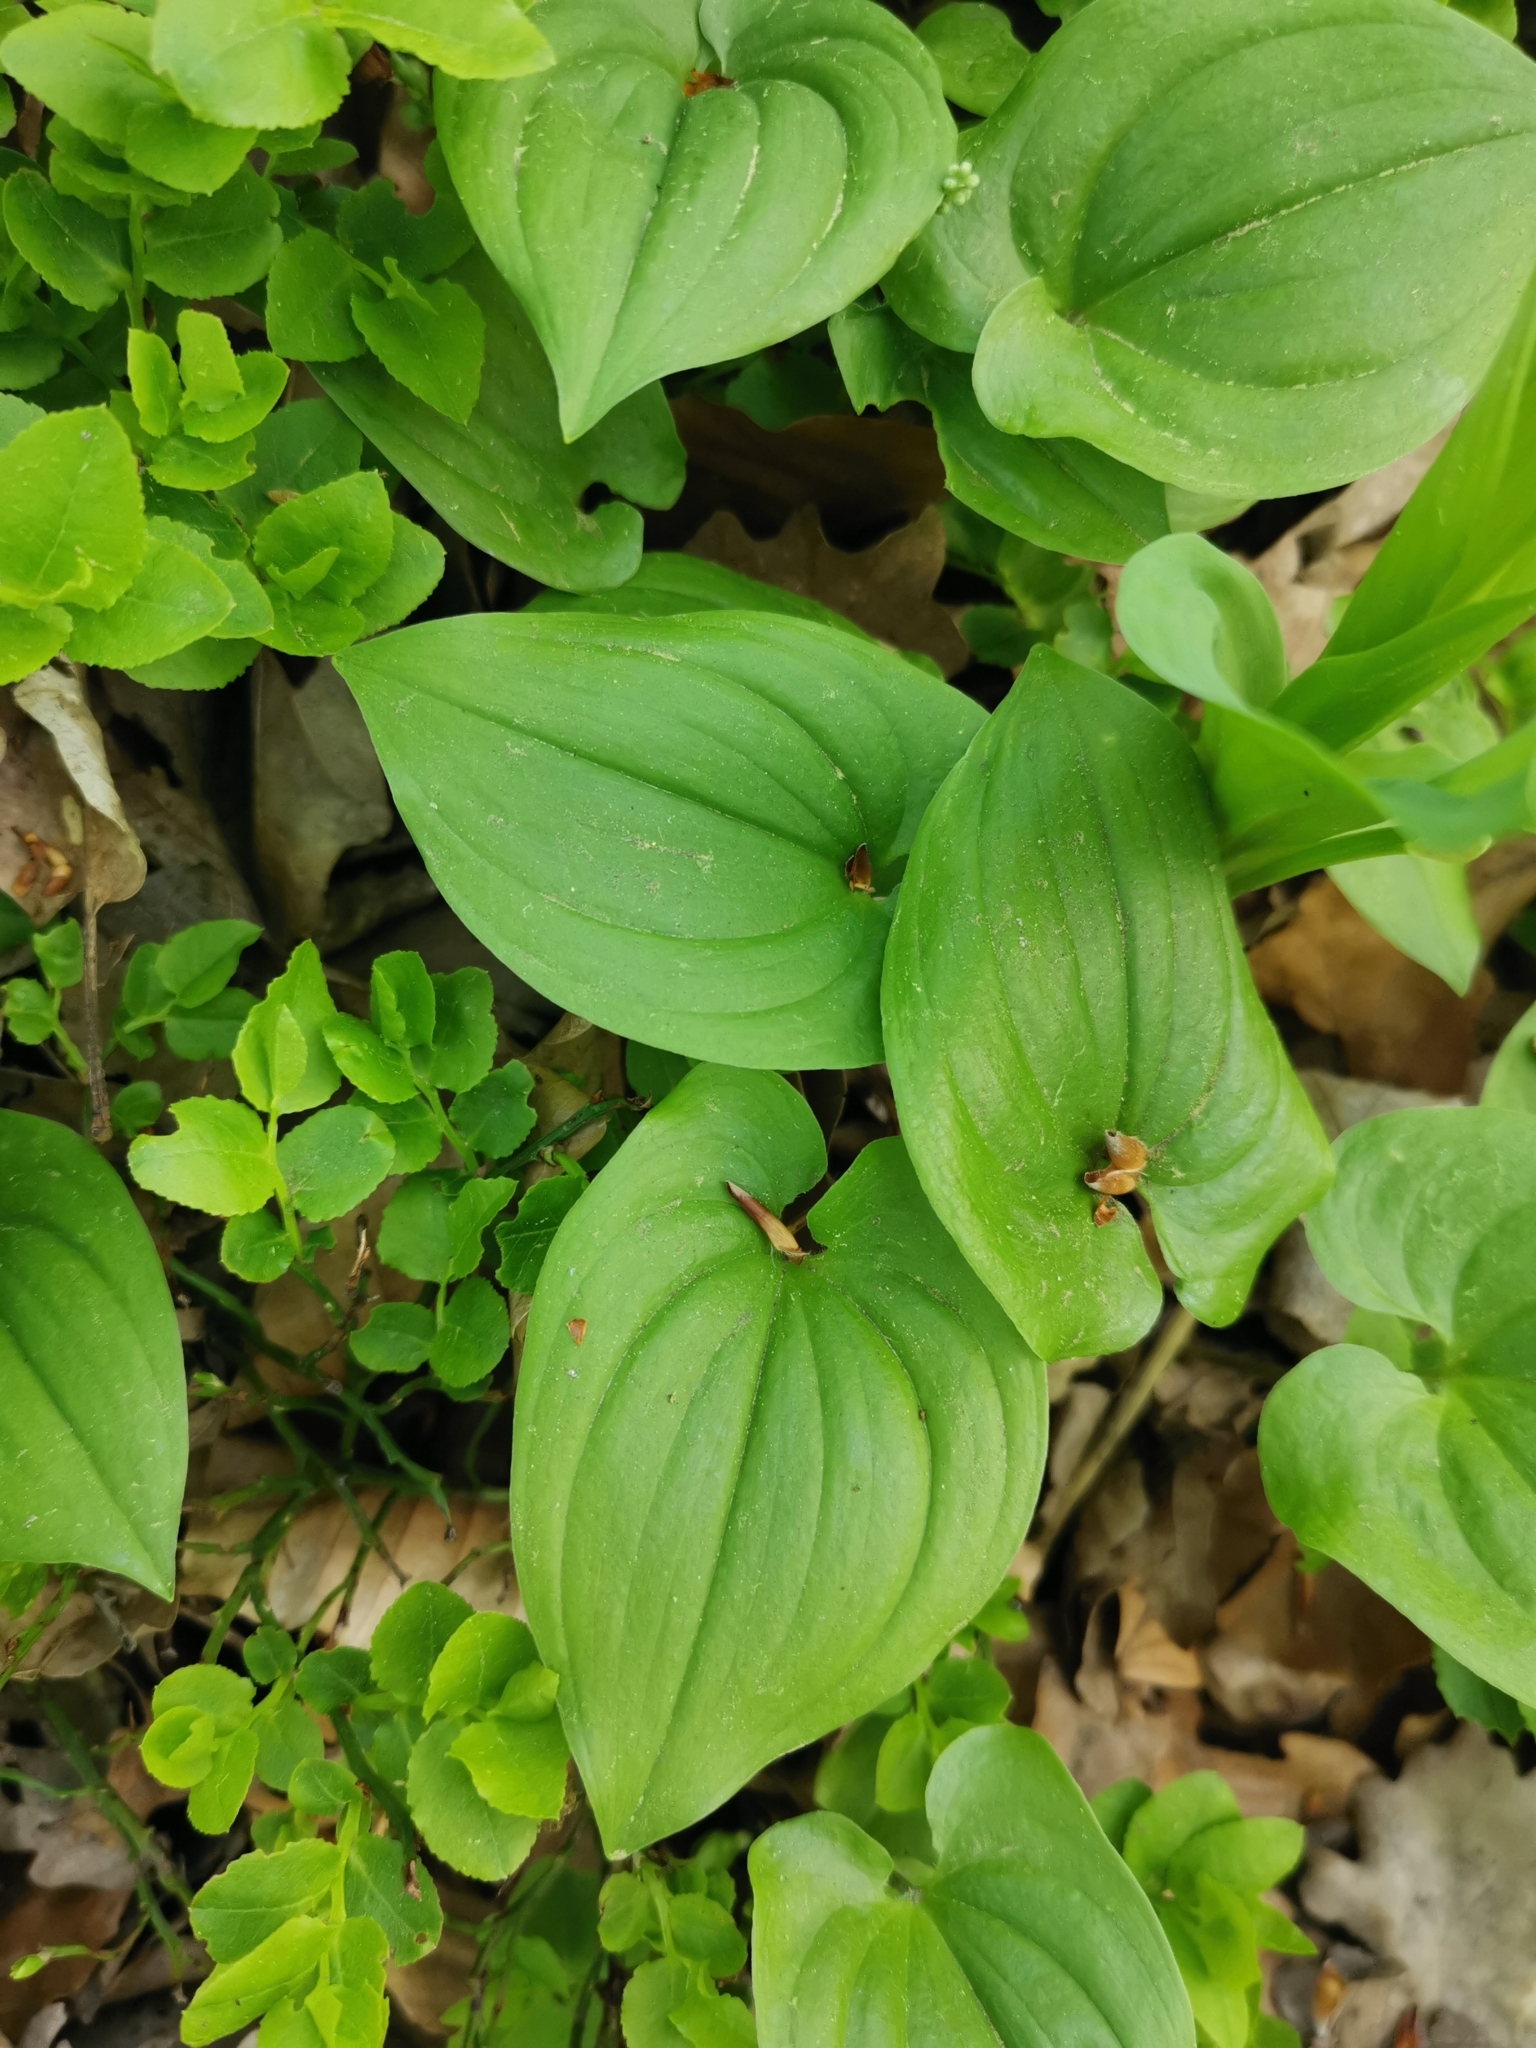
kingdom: Plantae
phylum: Tracheophyta
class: Liliopsida
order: Asparagales
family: Asparagaceae
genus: Maianthemum
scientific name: Maianthemum bifolium
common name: May lily
